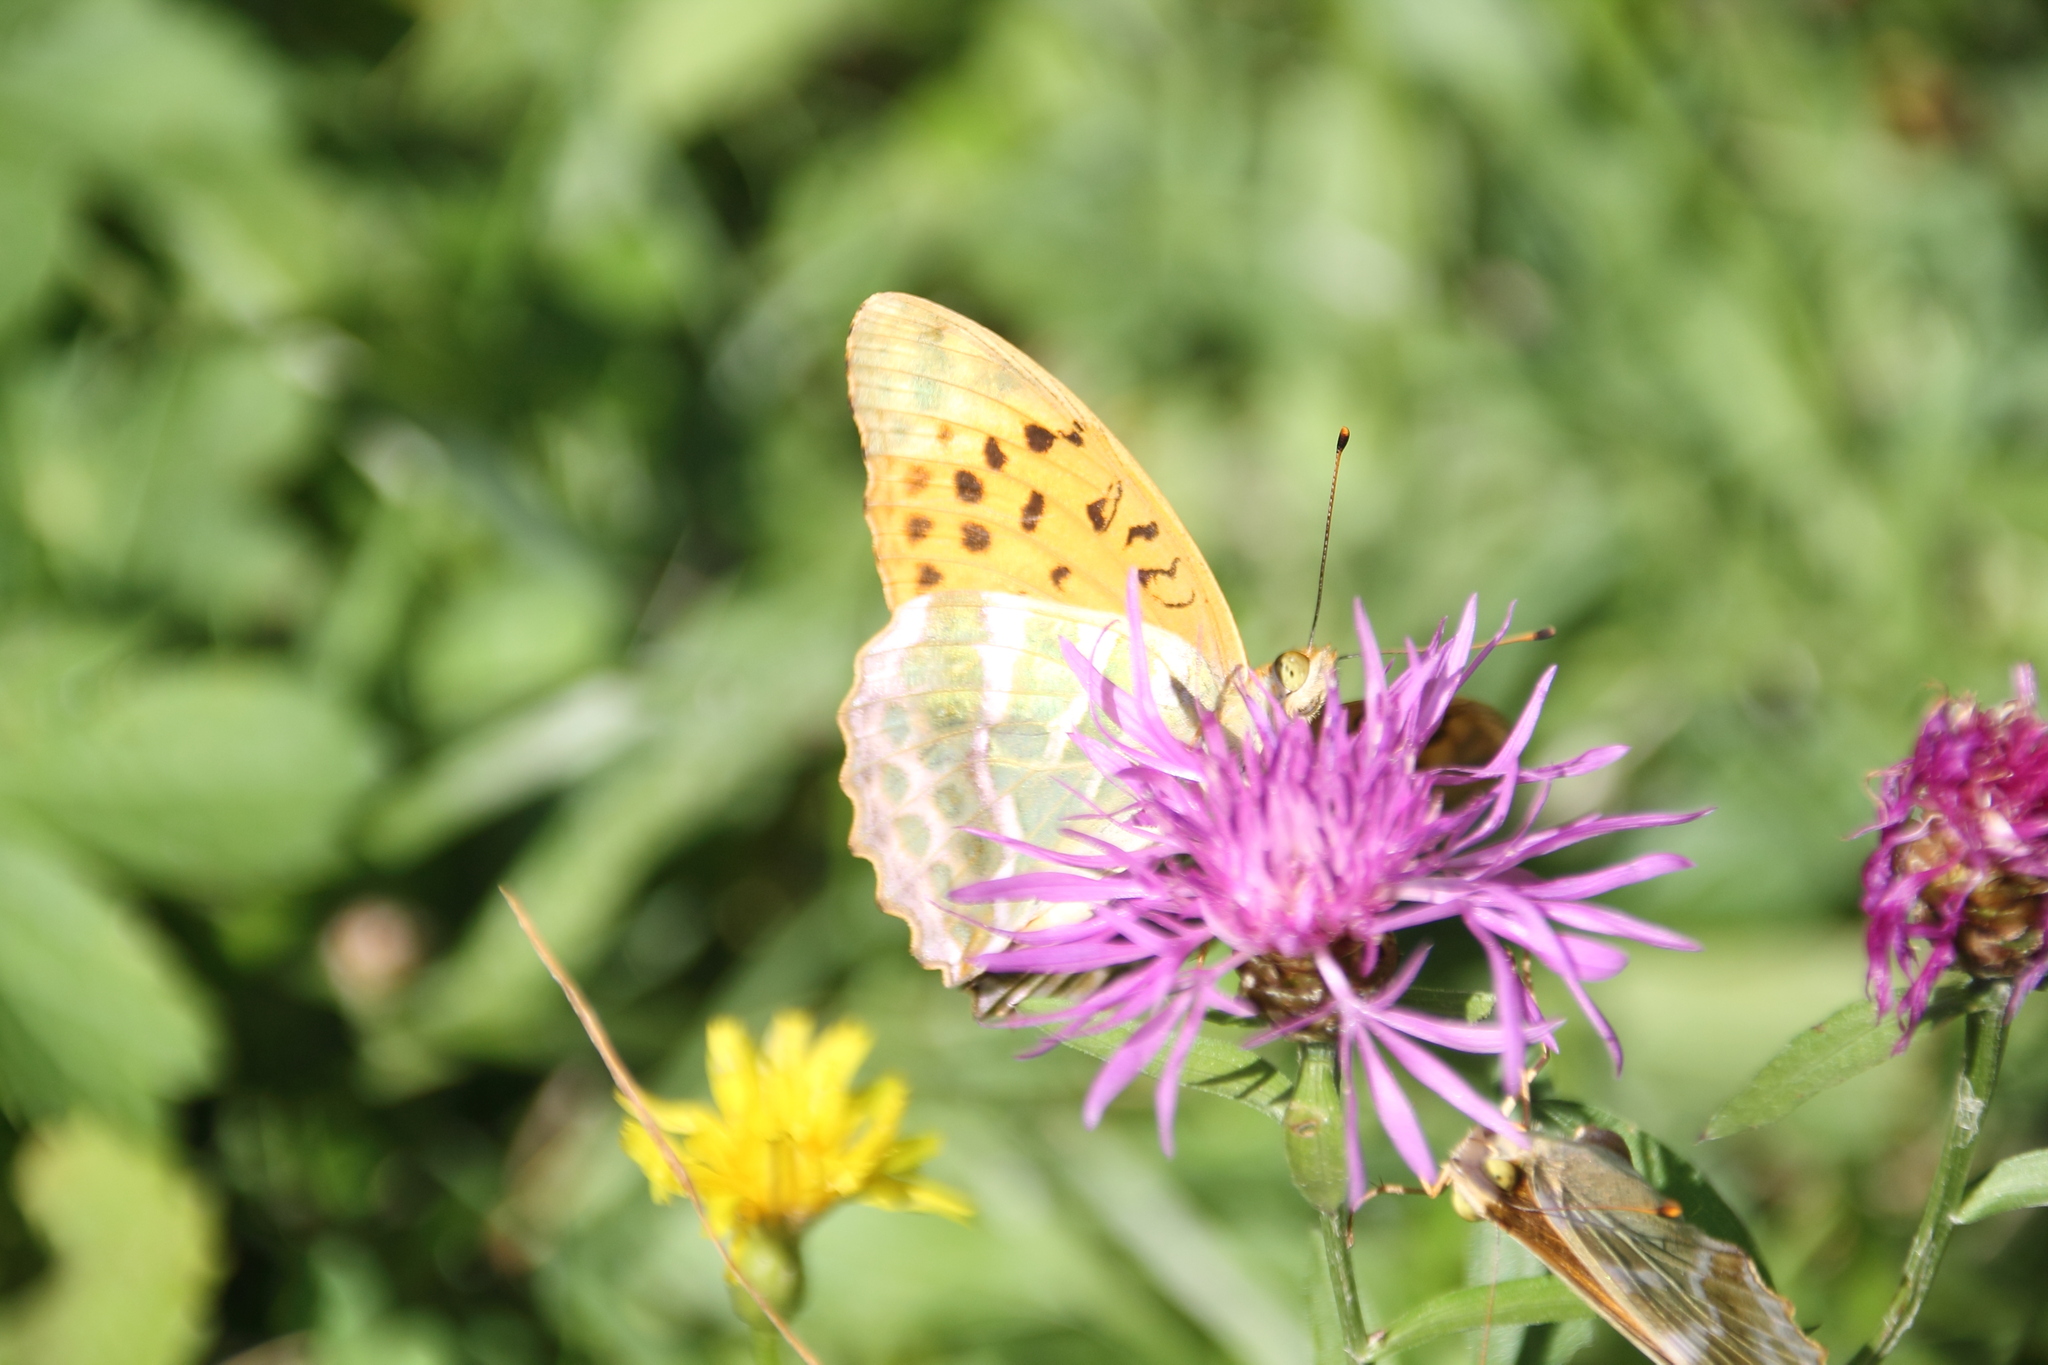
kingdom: Animalia
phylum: Arthropoda
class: Insecta
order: Lepidoptera
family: Nymphalidae
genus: Argynnis
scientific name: Argynnis paphia
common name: Silver-washed fritillary
